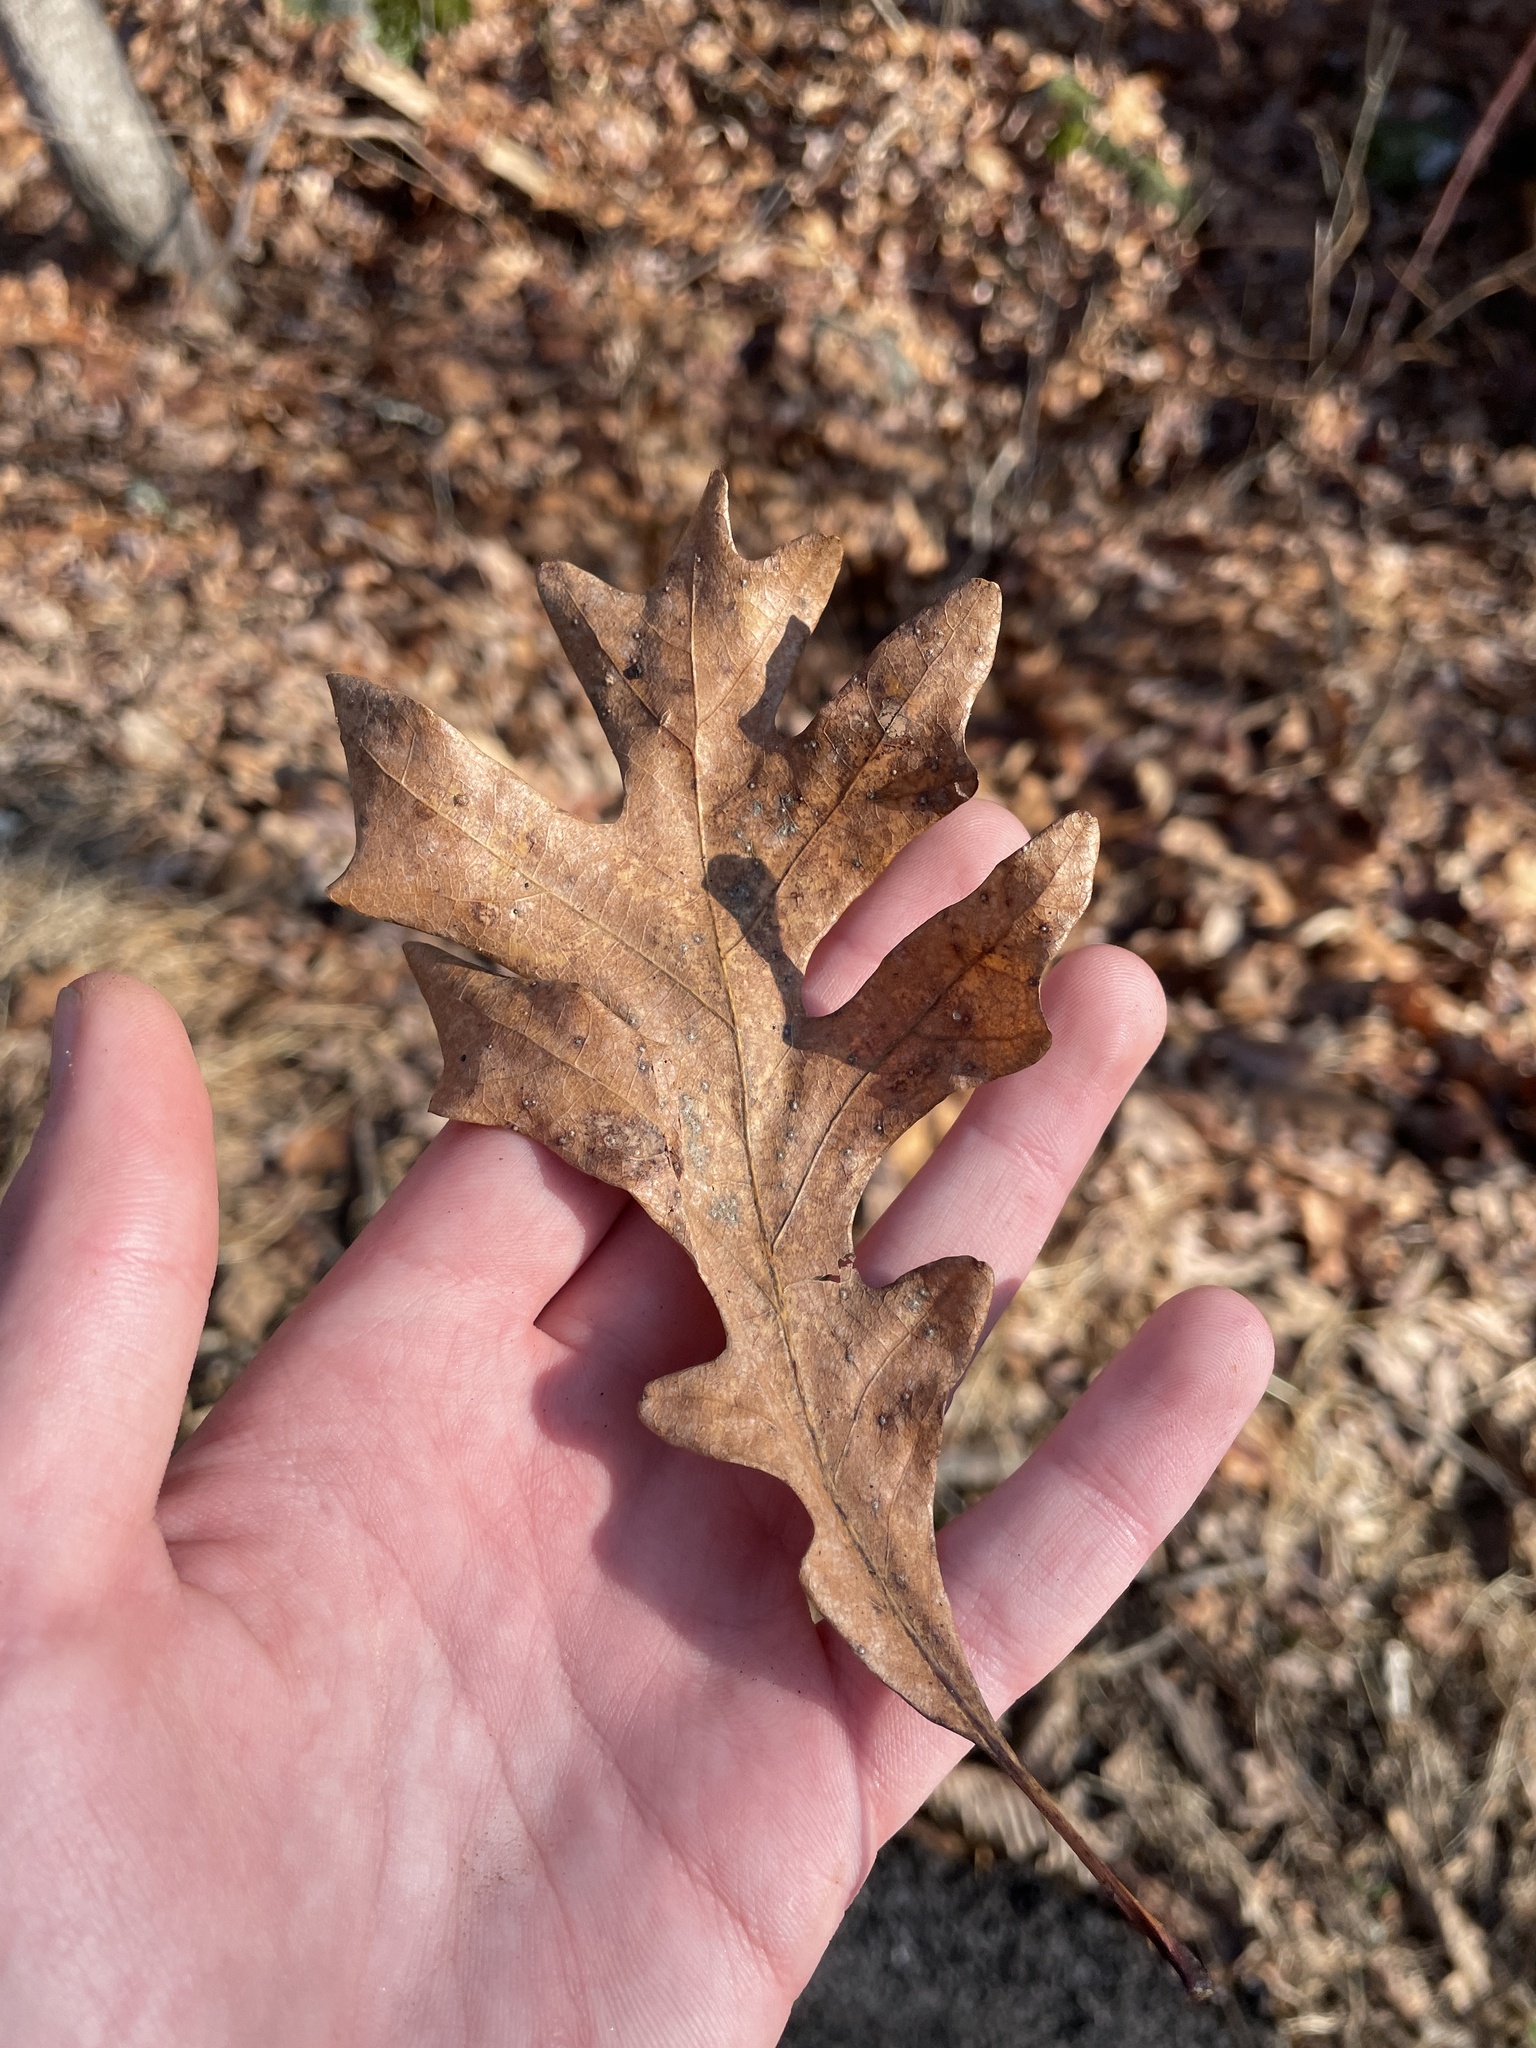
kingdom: Plantae
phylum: Tracheophyta
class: Magnoliopsida
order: Fagales
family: Fagaceae
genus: Quercus
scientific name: Quercus alba
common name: White oak
